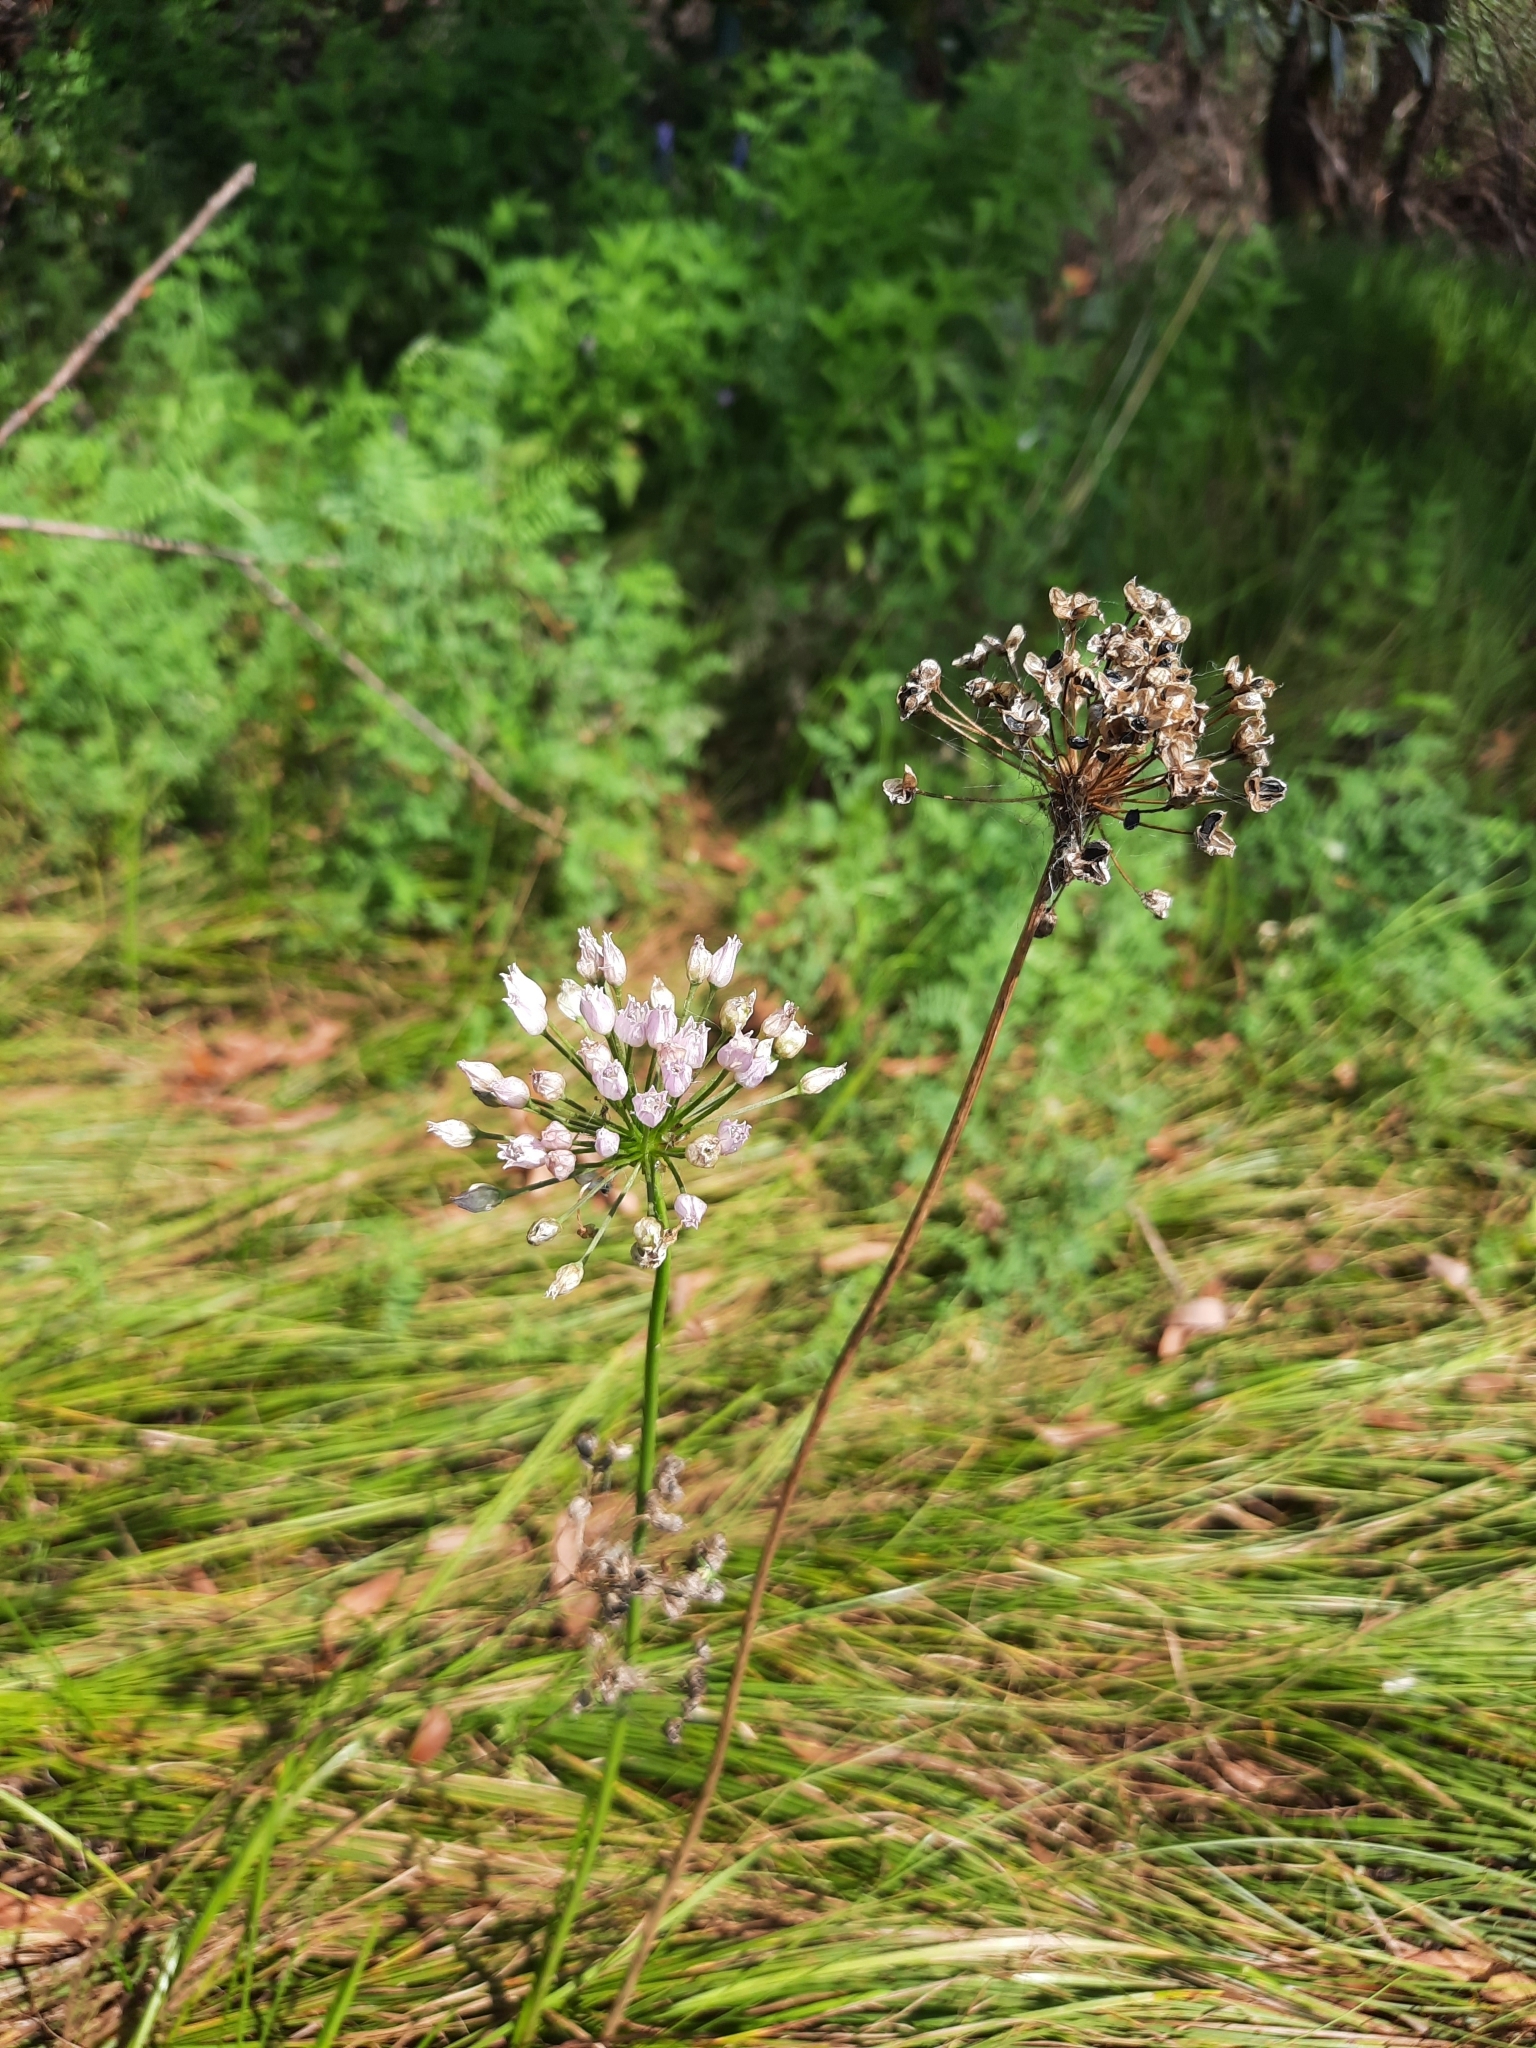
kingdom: Plantae
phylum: Tracheophyta
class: Liliopsida
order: Asparagales
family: Amaryllidaceae
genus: Allium
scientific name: Allium angulosum
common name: Mouse garlic
